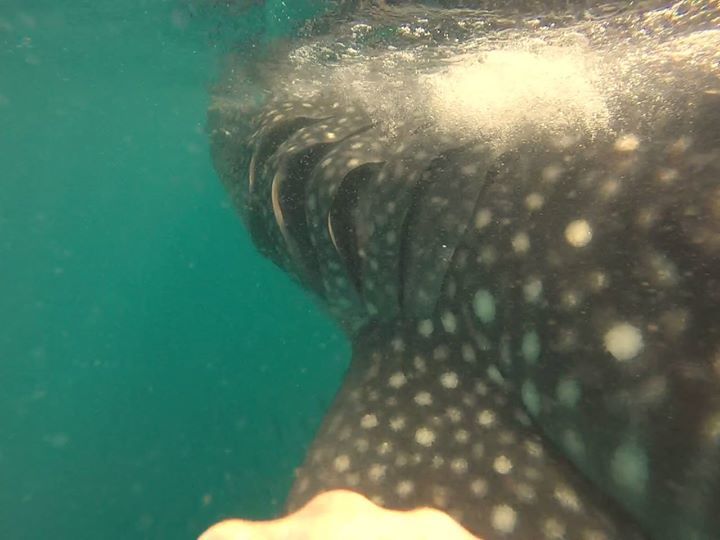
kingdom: Animalia
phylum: Chordata
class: Elasmobranchii
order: Orectolobiformes
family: Rhincodontidae
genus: Rhincodon
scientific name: Rhincodon typus
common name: Whale shark
